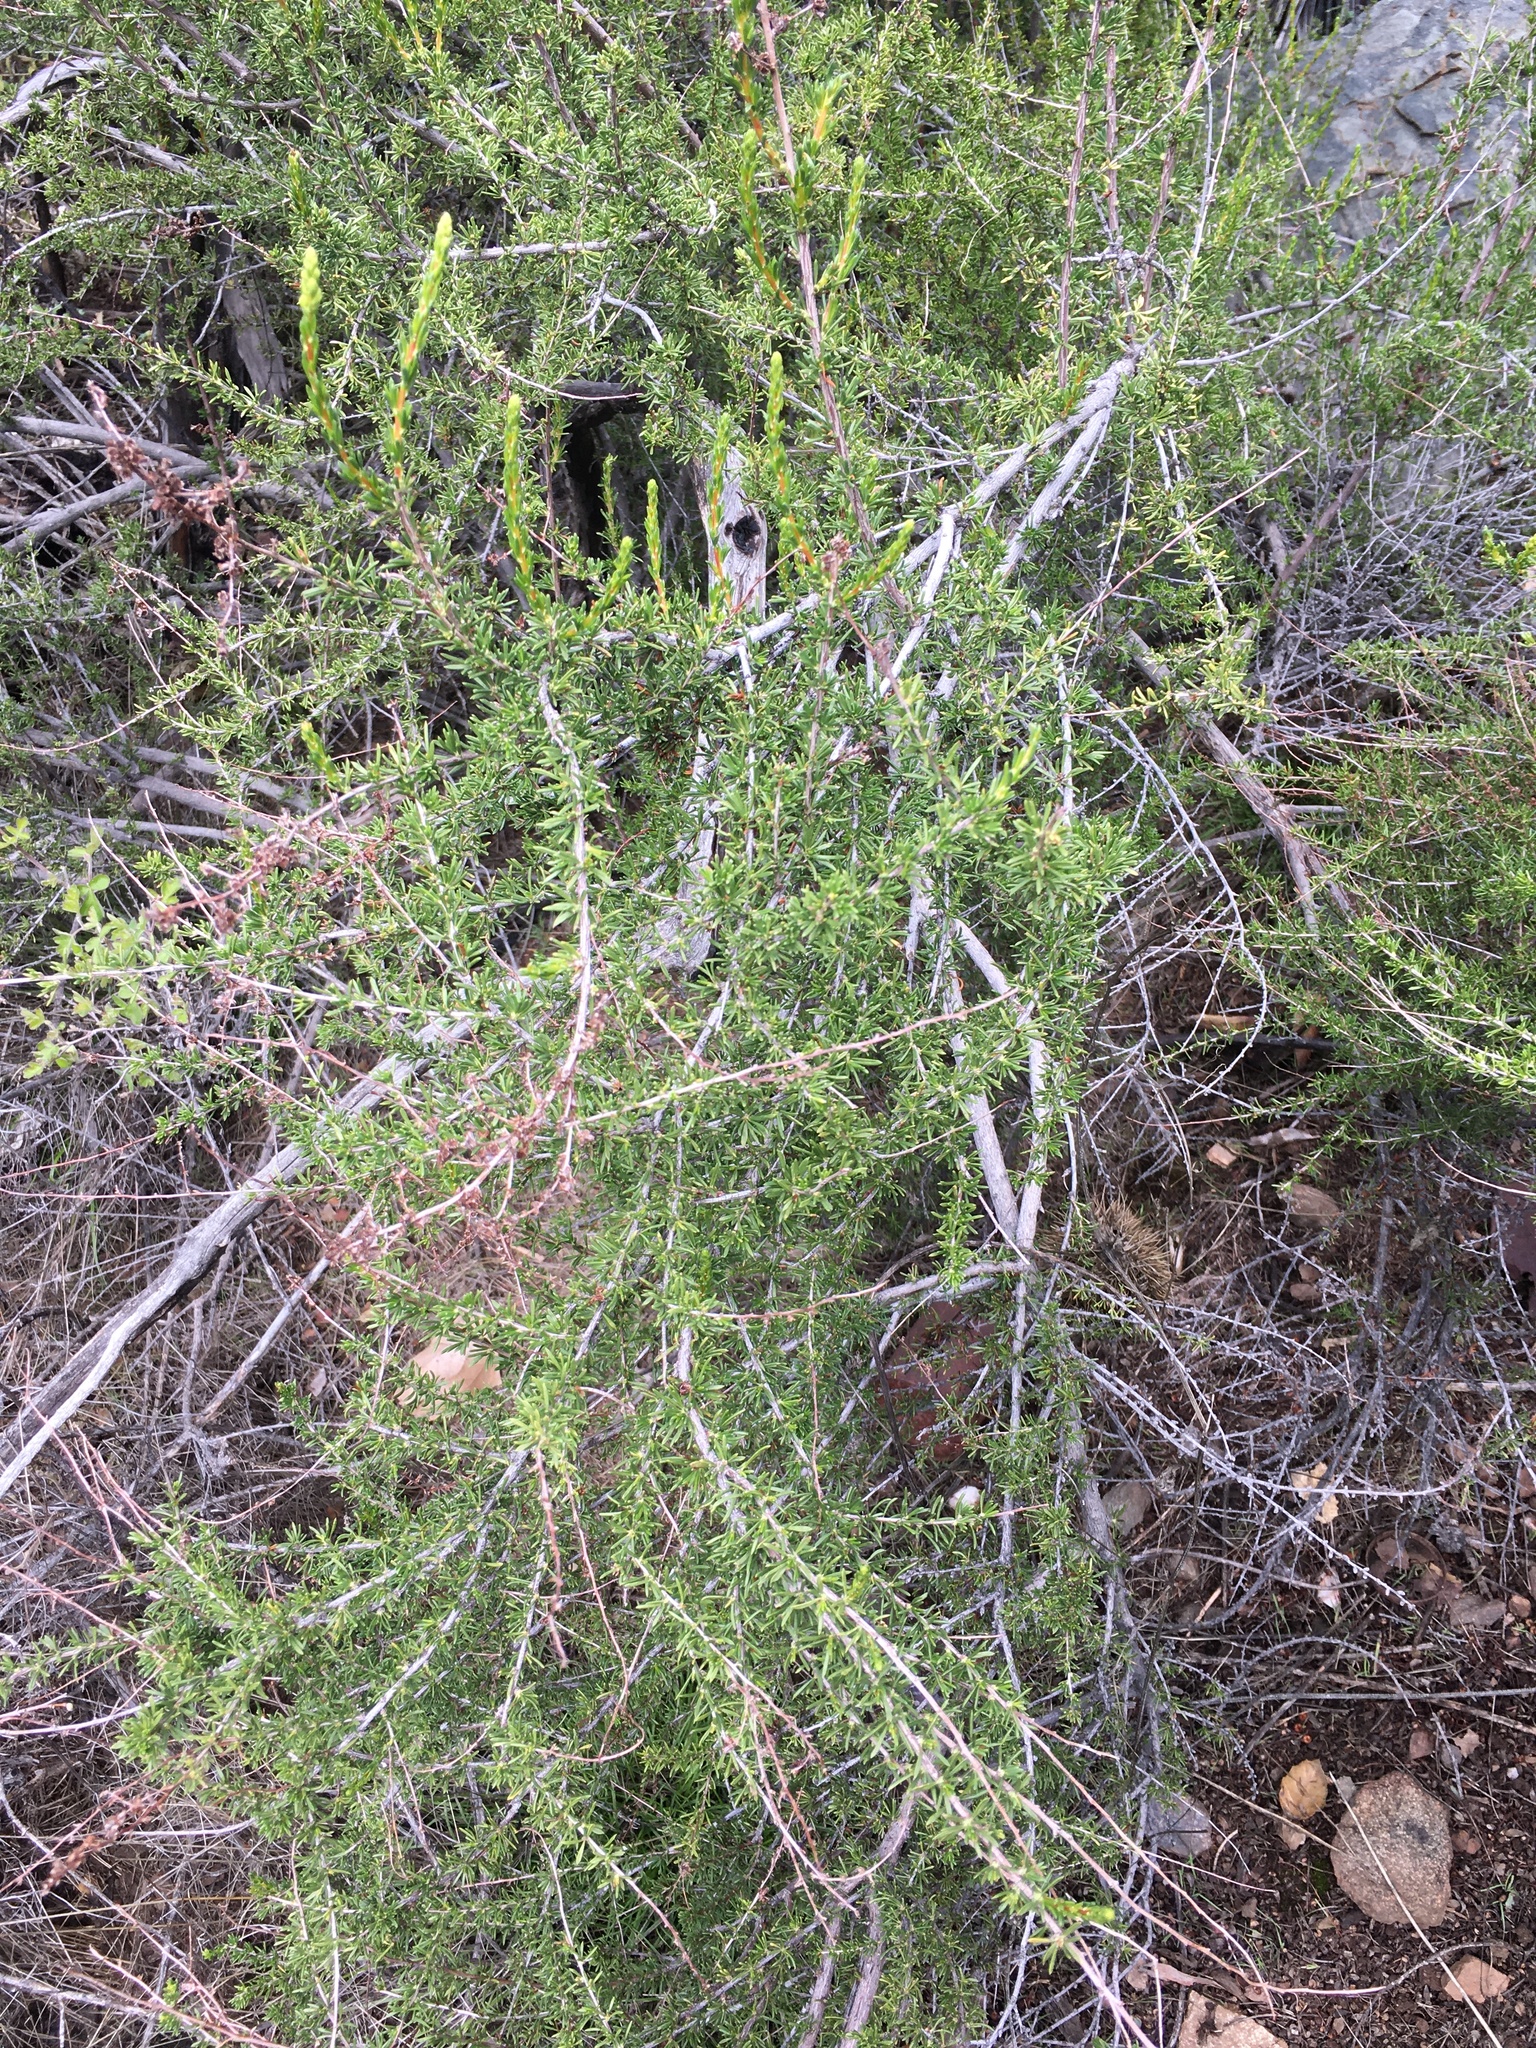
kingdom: Plantae
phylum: Tracheophyta
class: Magnoliopsida
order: Rosales
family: Rosaceae
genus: Adenostoma
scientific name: Adenostoma fasciculatum
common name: Chamise
